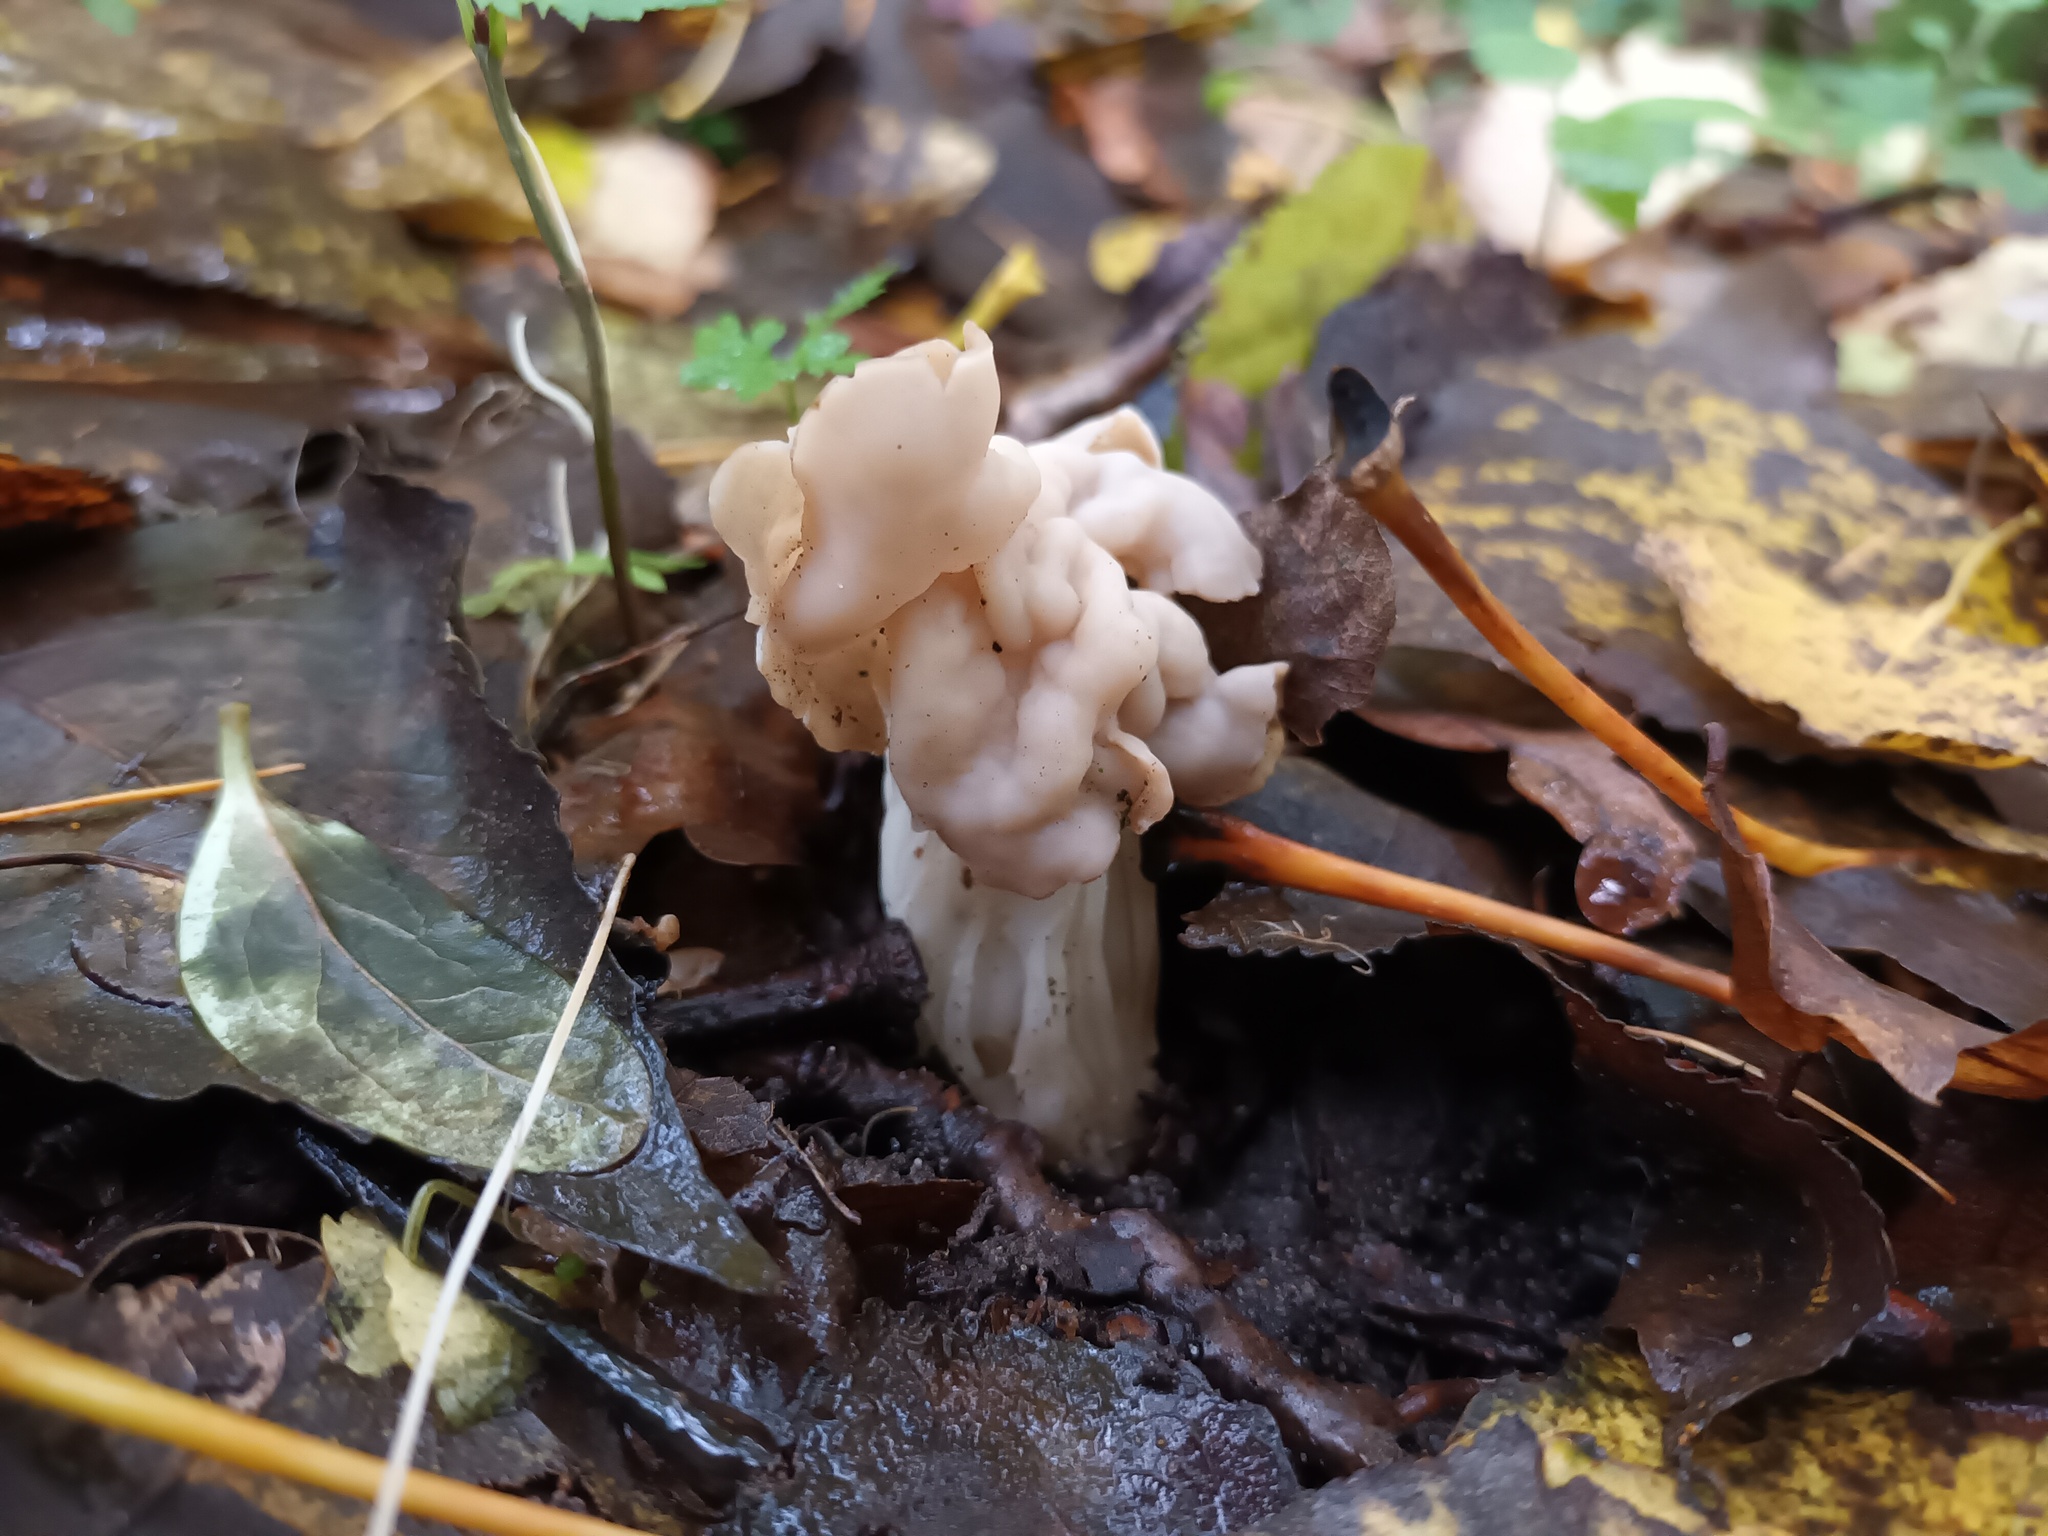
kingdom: Fungi
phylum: Ascomycota
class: Pezizomycetes
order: Pezizales
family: Helvellaceae
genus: Helvella
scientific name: Helvella crispa
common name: White saddle
